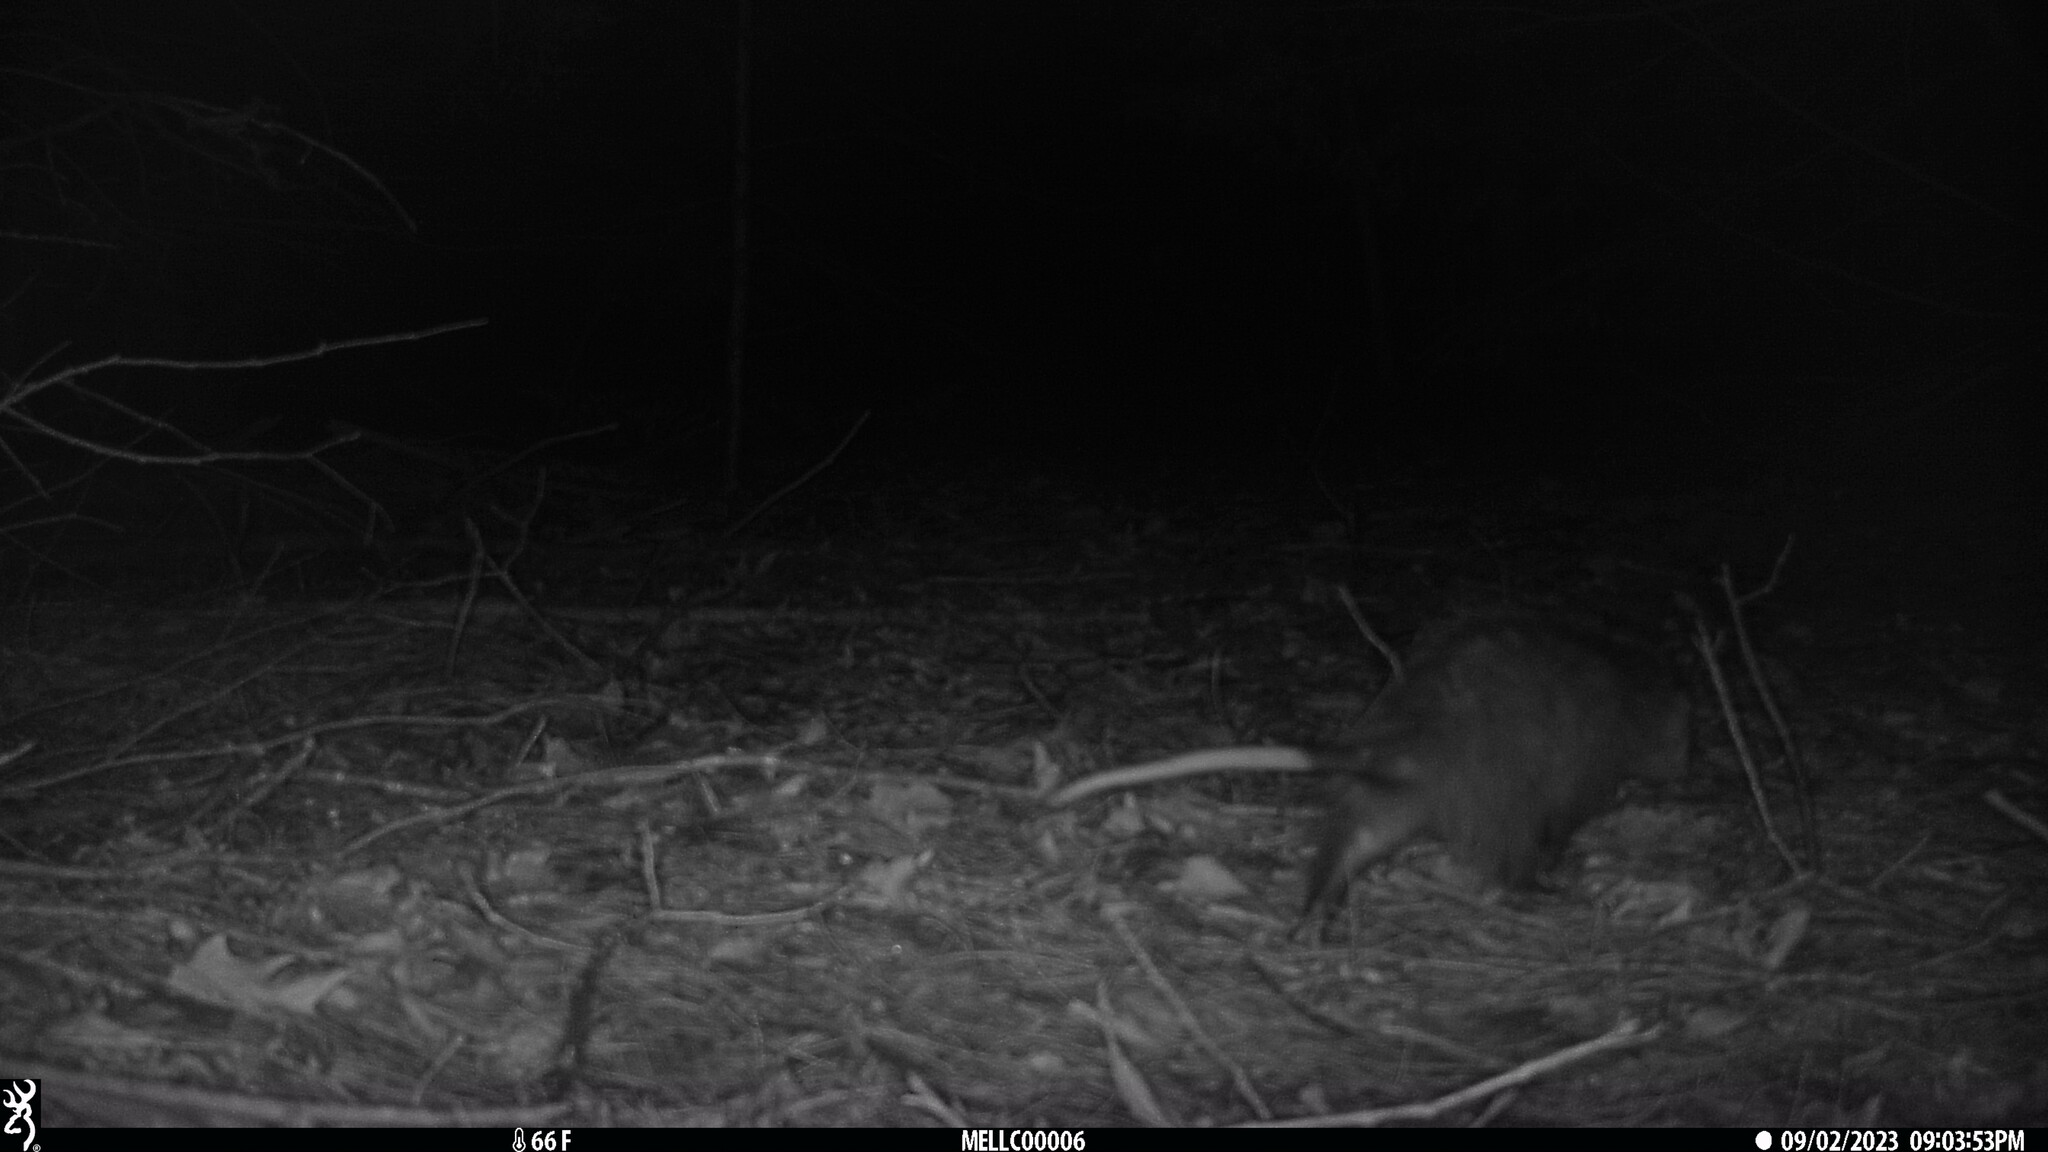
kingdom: Animalia
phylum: Chordata
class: Mammalia
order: Didelphimorphia
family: Didelphidae
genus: Didelphis
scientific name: Didelphis virginiana
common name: Virginia opossum
